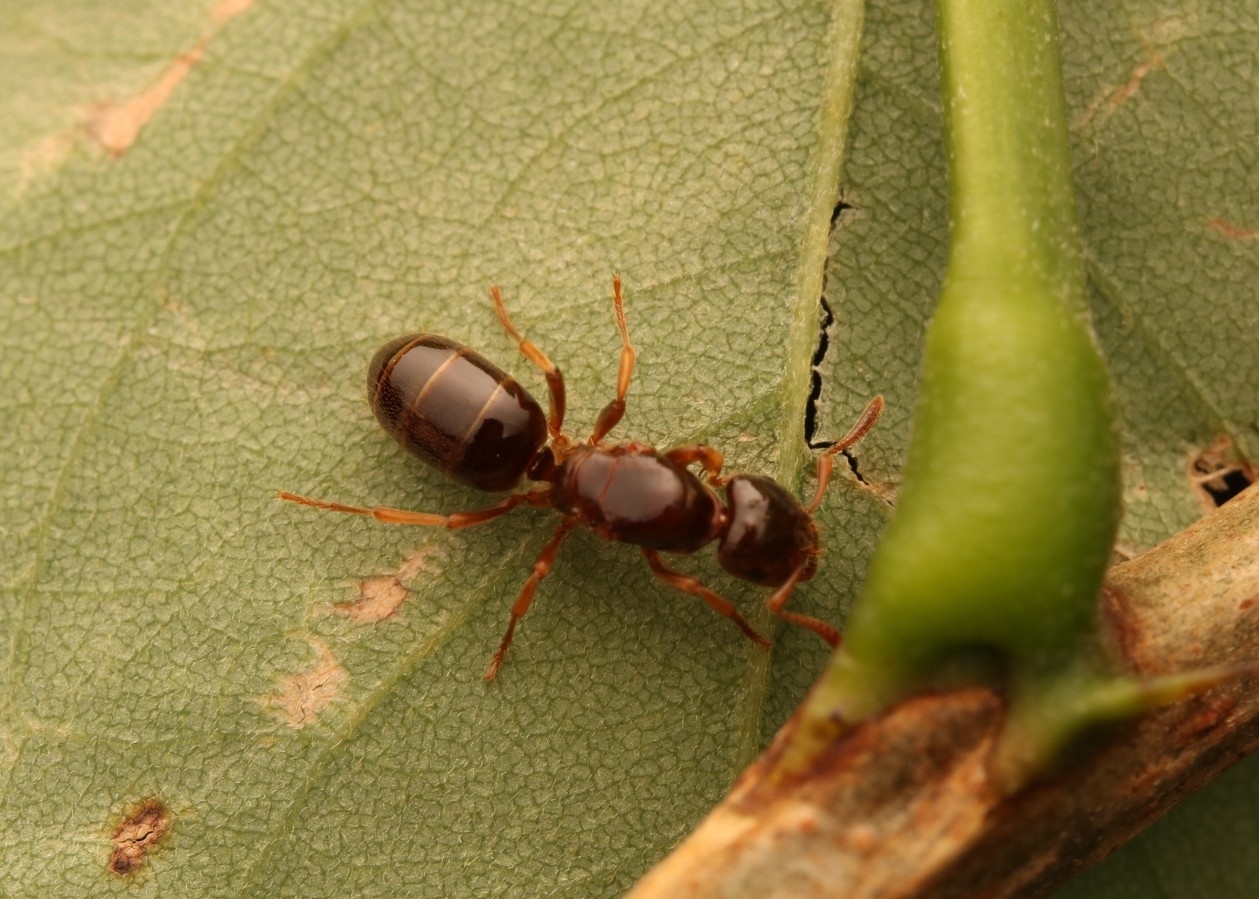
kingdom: Animalia
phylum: Arthropoda
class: Insecta
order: Hymenoptera
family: Formicidae
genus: Lasius
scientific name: Lasius claviger
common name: Common citronella ant
